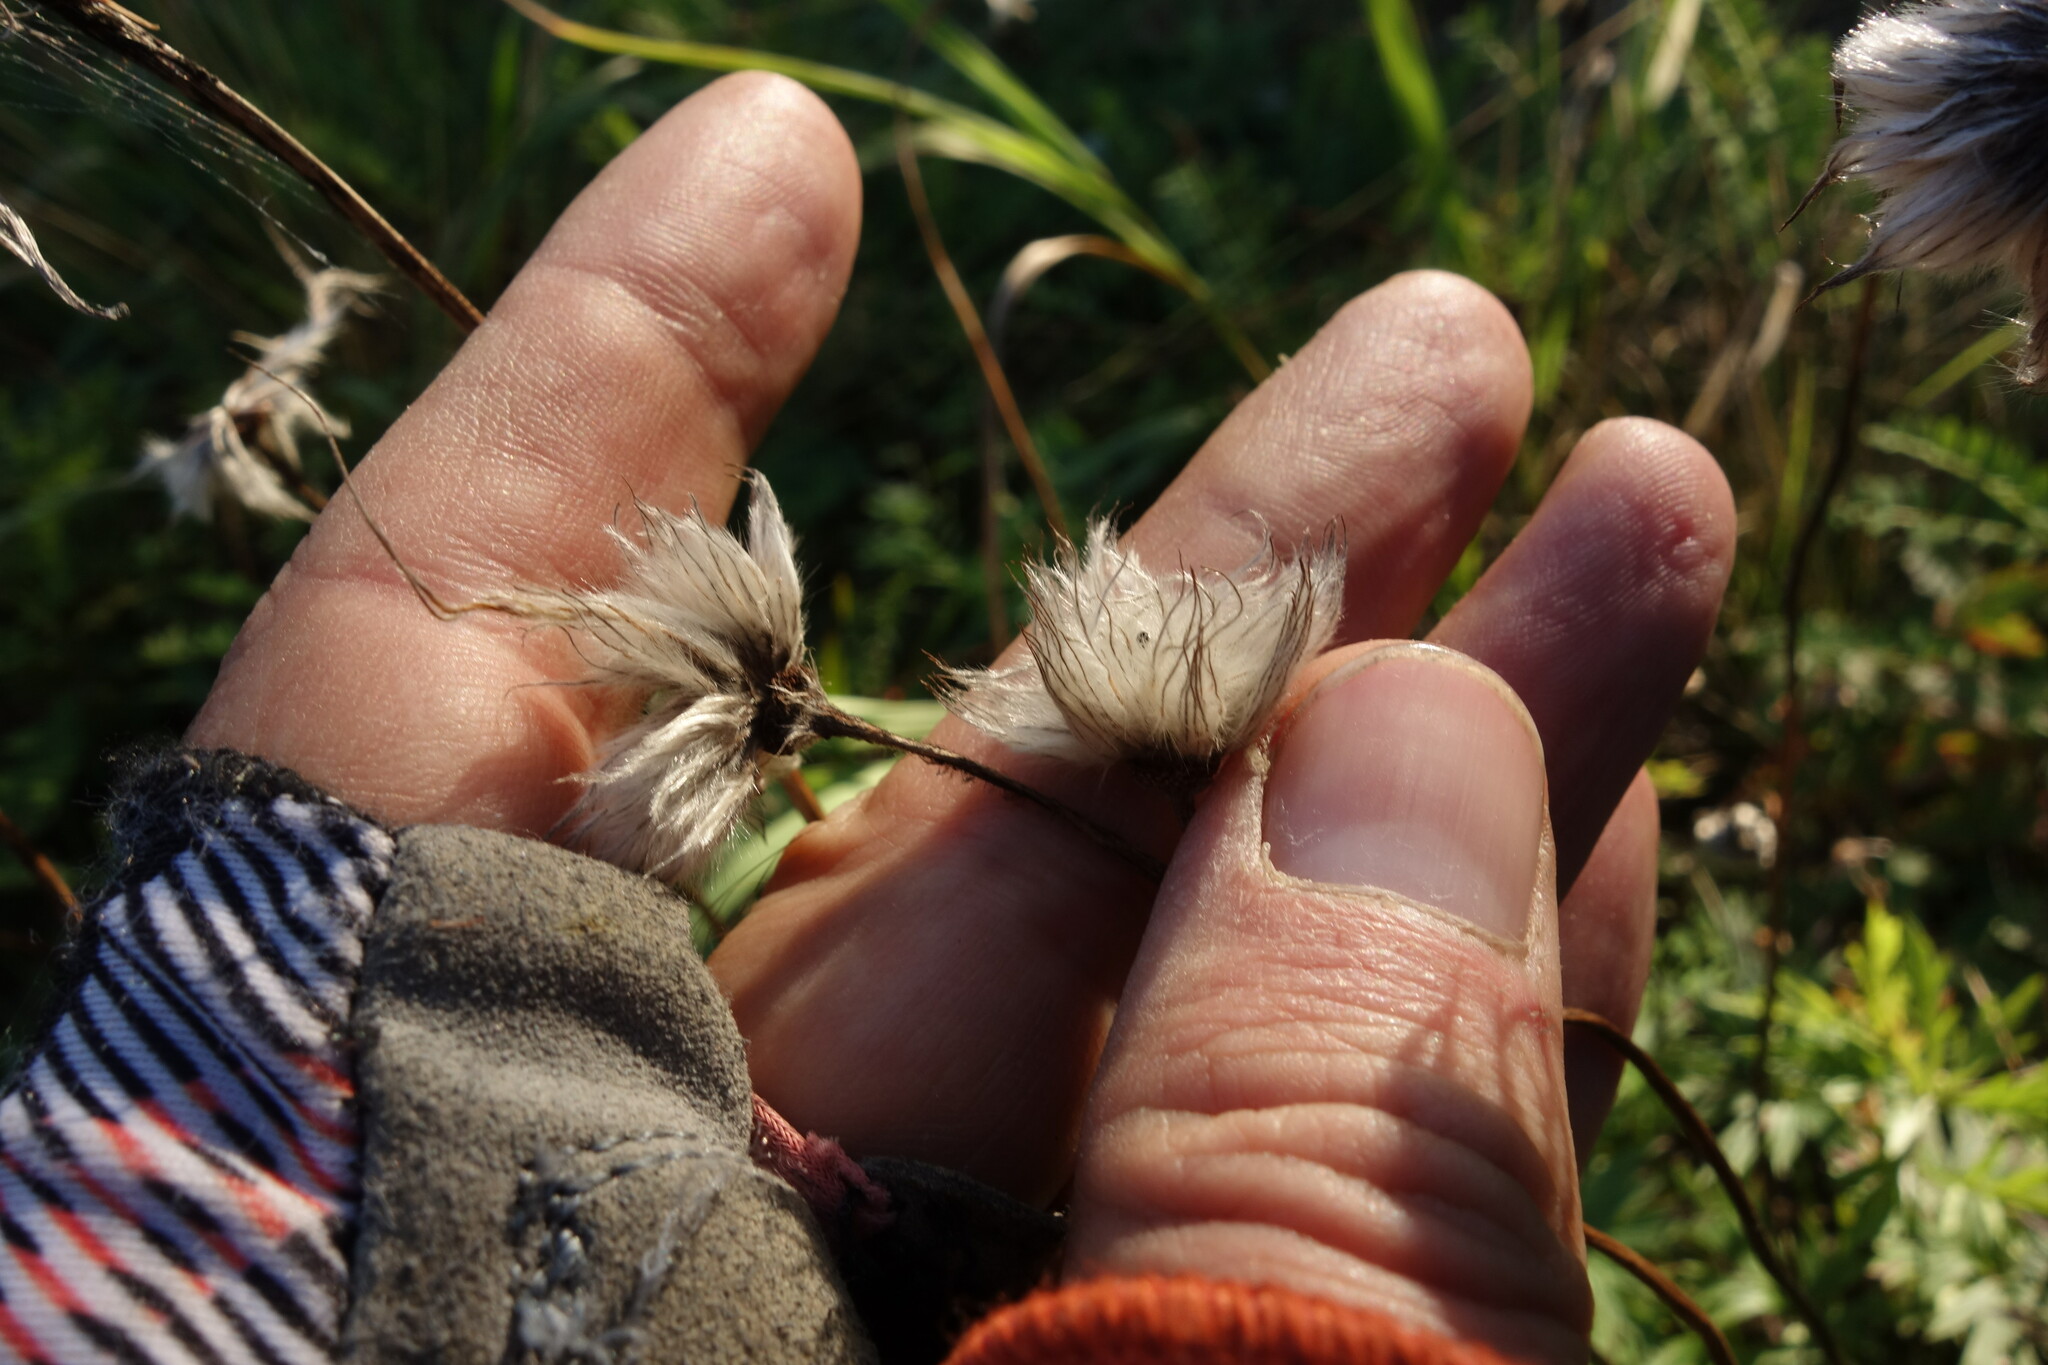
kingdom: Plantae
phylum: Tracheophyta
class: Magnoliopsida
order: Ranunculales
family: Ranunculaceae
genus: Pulsatilla
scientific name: Pulsatilla patens
